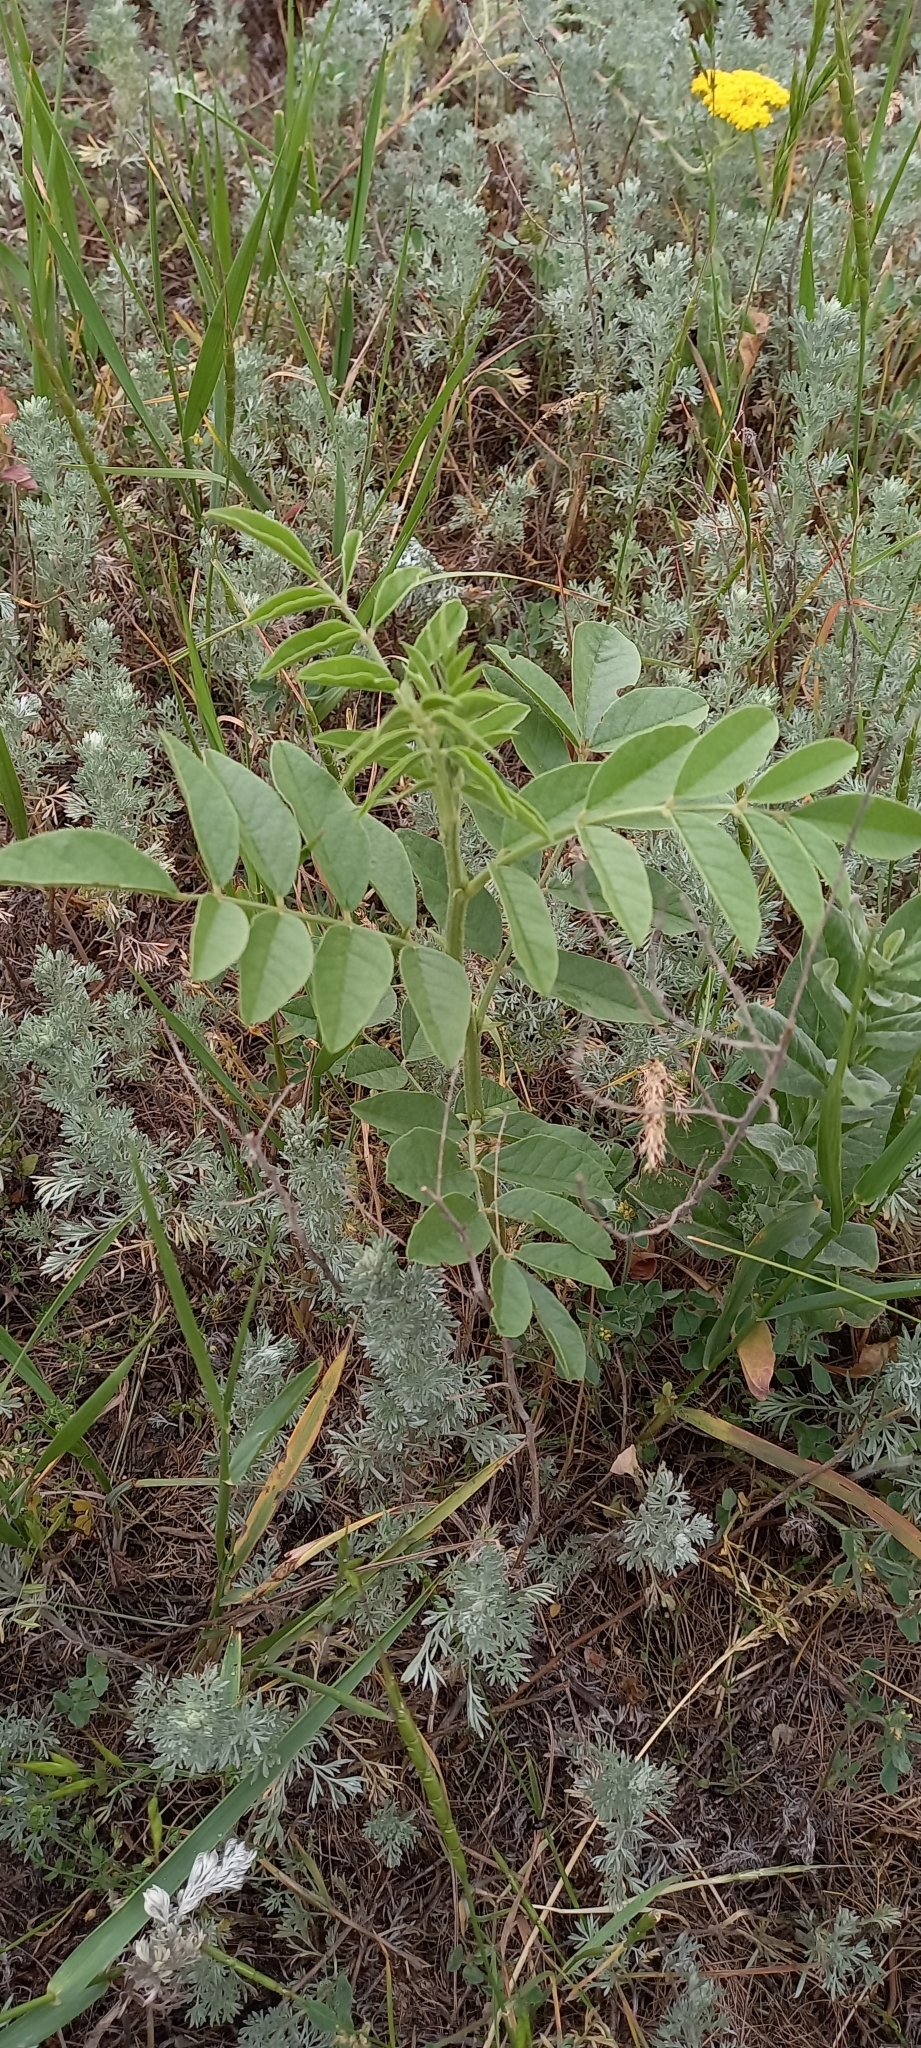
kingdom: Plantae
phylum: Tracheophyta
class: Magnoliopsida
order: Fabales
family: Fabaceae
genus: Glycyrrhiza
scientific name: Glycyrrhiza glabra
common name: Liquorice
